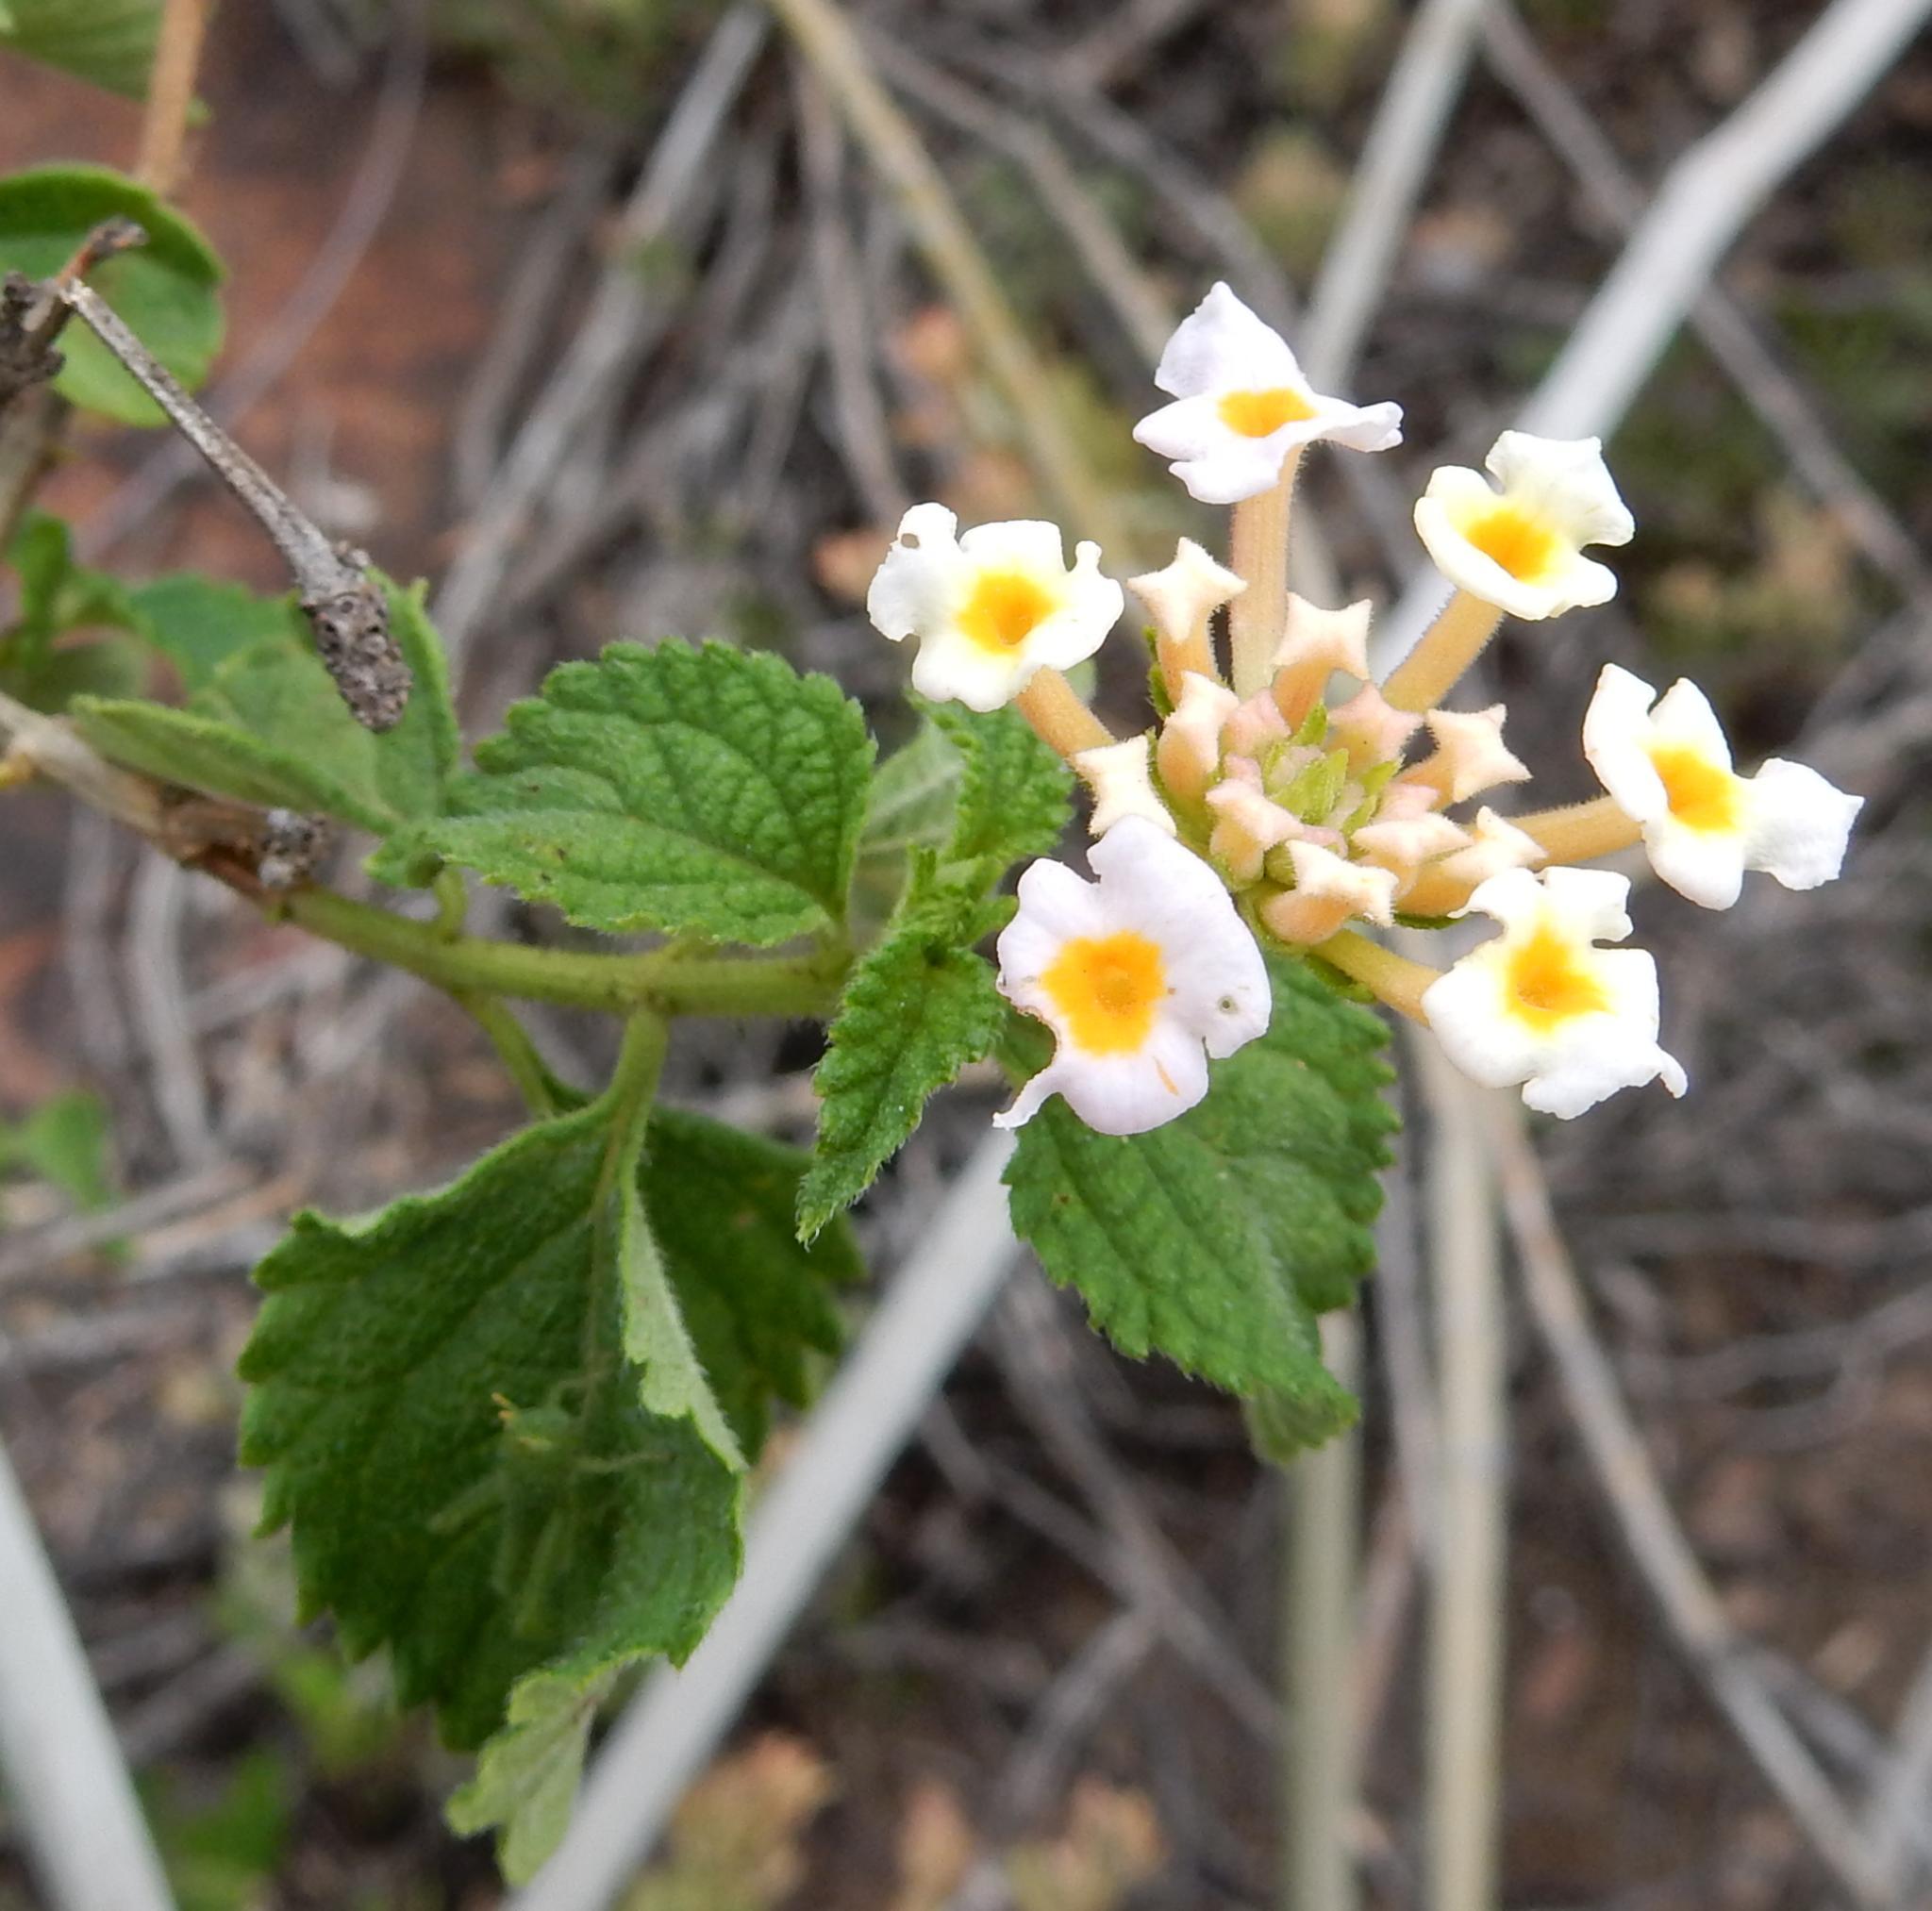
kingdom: Plantae
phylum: Tracheophyta
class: Magnoliopsida
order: Lamiales
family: Verbenaceae
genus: Lantana
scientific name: Lantana camara
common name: Lantana
